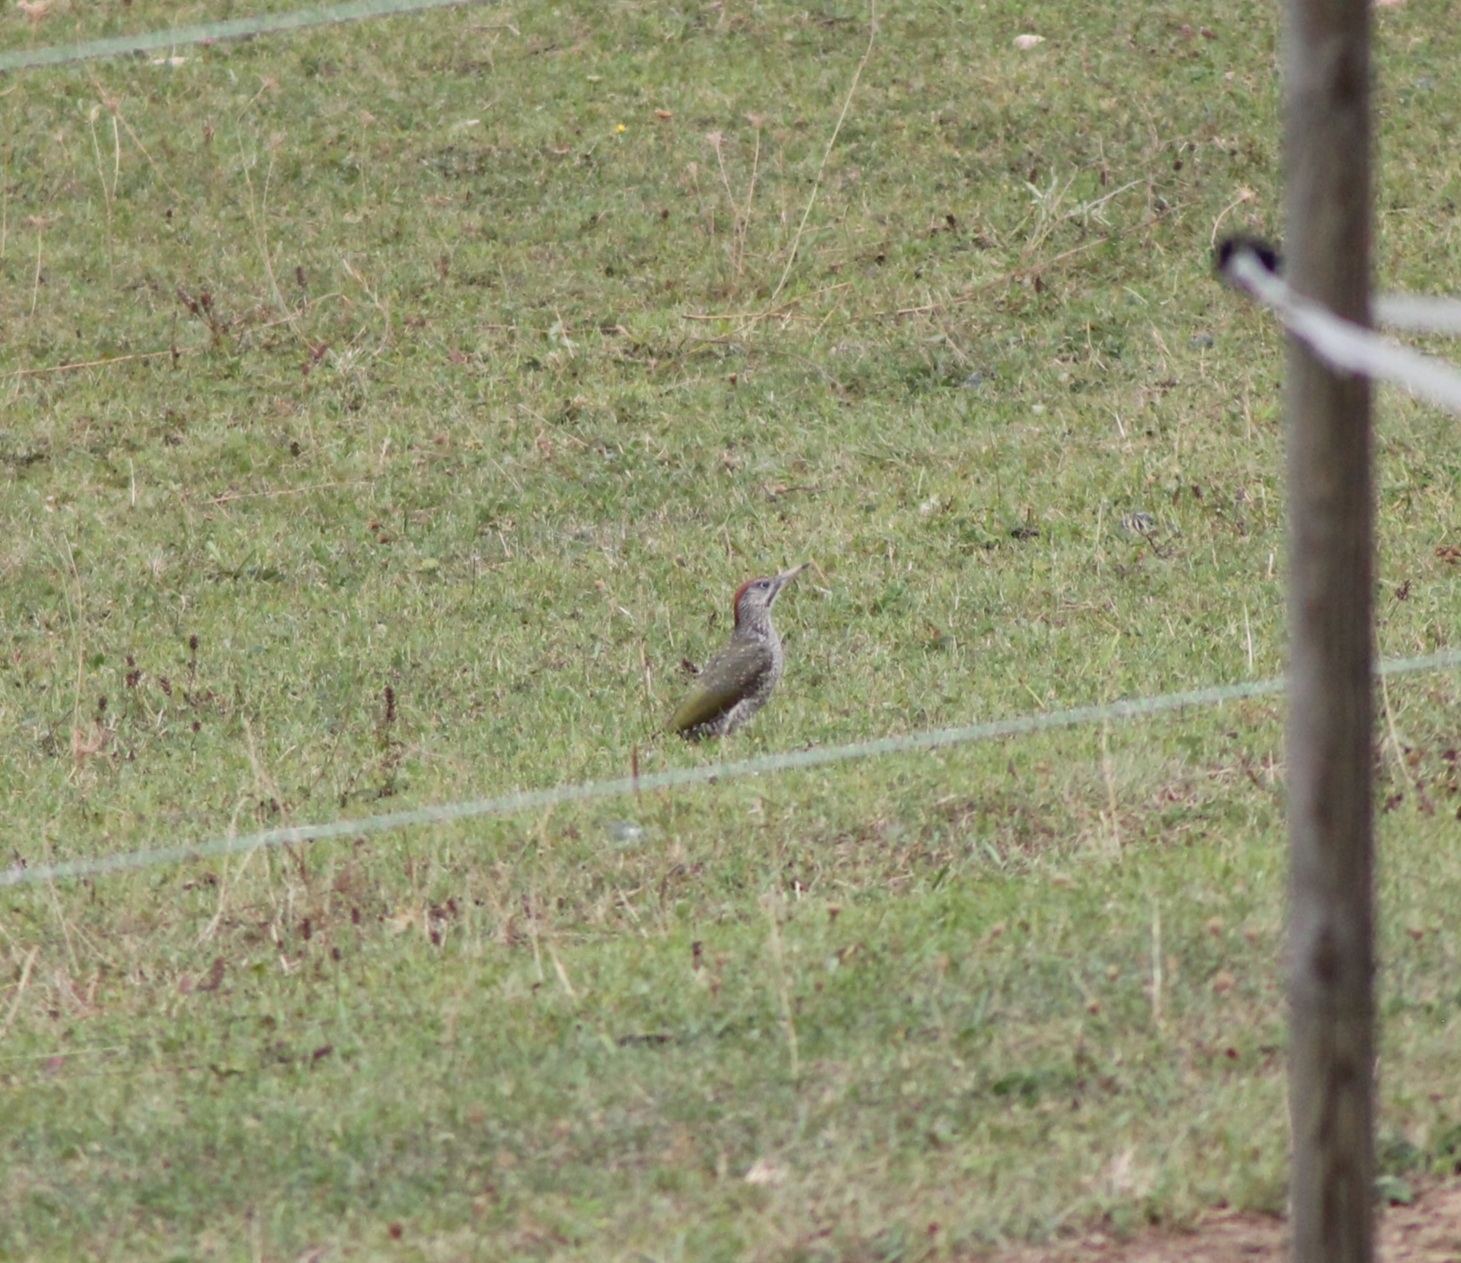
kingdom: Animalia
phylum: Chordata
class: Aves
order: Piciformes
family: Picidae
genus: Picus
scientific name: Picus viridis
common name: European green woodpecker
